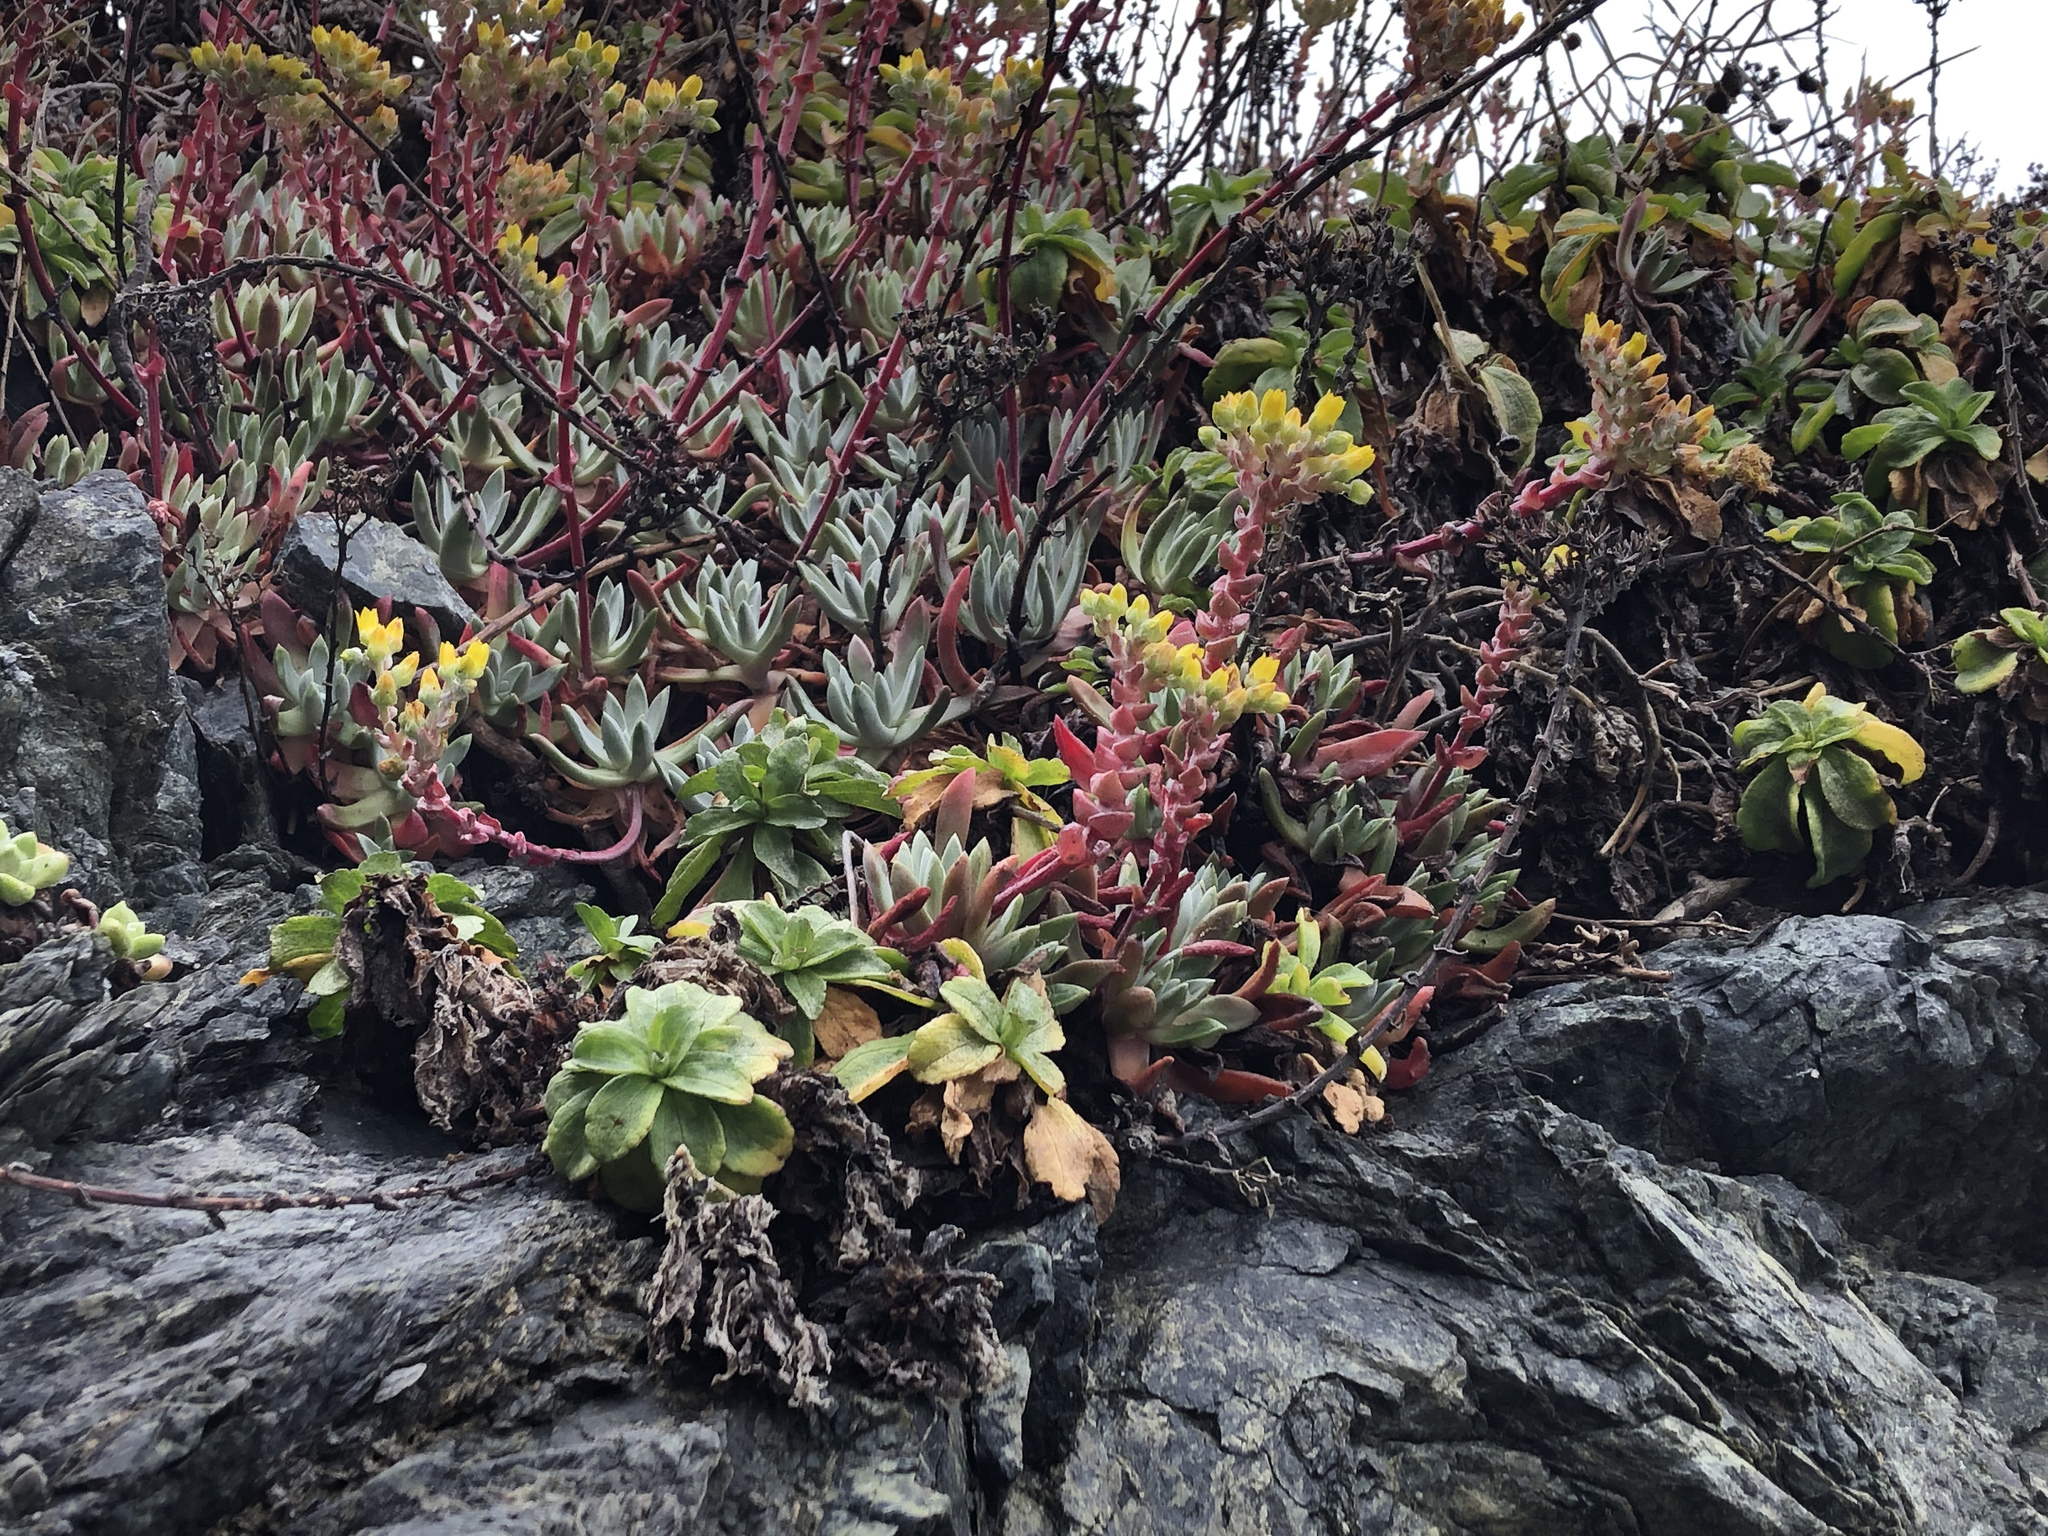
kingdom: Plantae
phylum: Tracheophyta
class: Magnoliopsida
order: Saxifragales
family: Crassulaceae
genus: Dudleya
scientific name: Dudleya caespitosa
